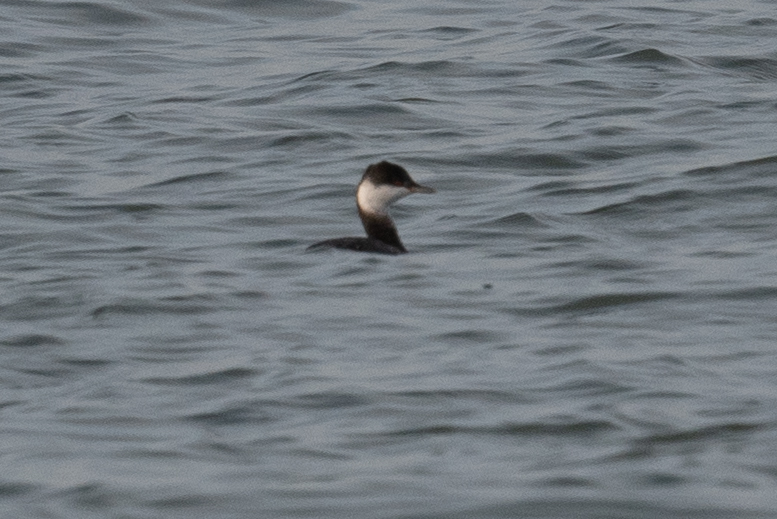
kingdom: Animalia
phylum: Chordata
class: Aves
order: Podicipediformes
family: Podicipedidae
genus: Podiceps
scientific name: Podiceps auritus
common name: Horned grebe
